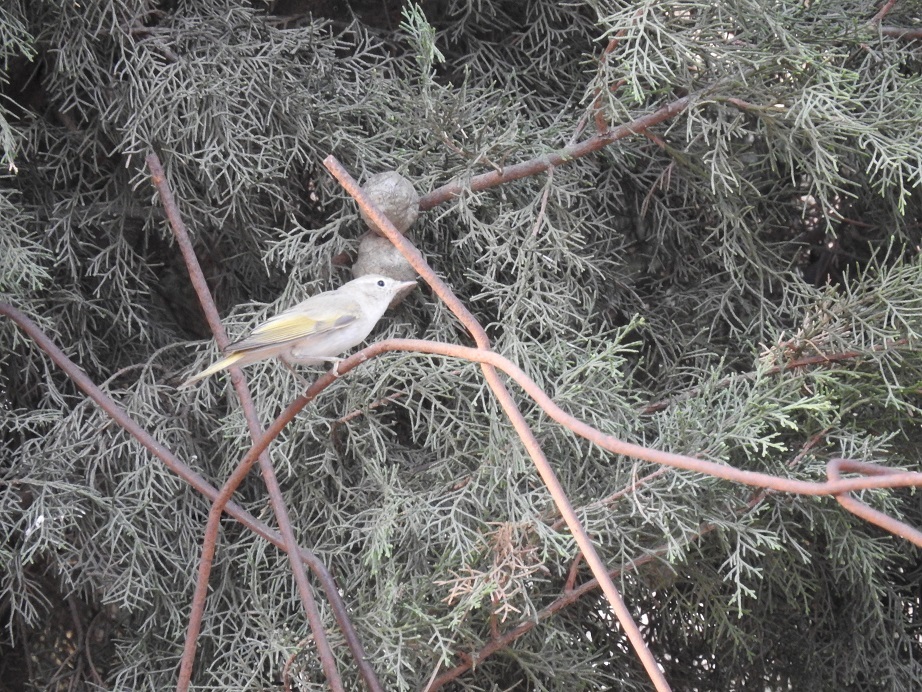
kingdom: Animalia
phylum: Chordata
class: Aves
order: Passeriformes
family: Phylloscopidae
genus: Phylloscopus
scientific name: Phylloscopus bonelli
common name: Western bonelli's warbler
